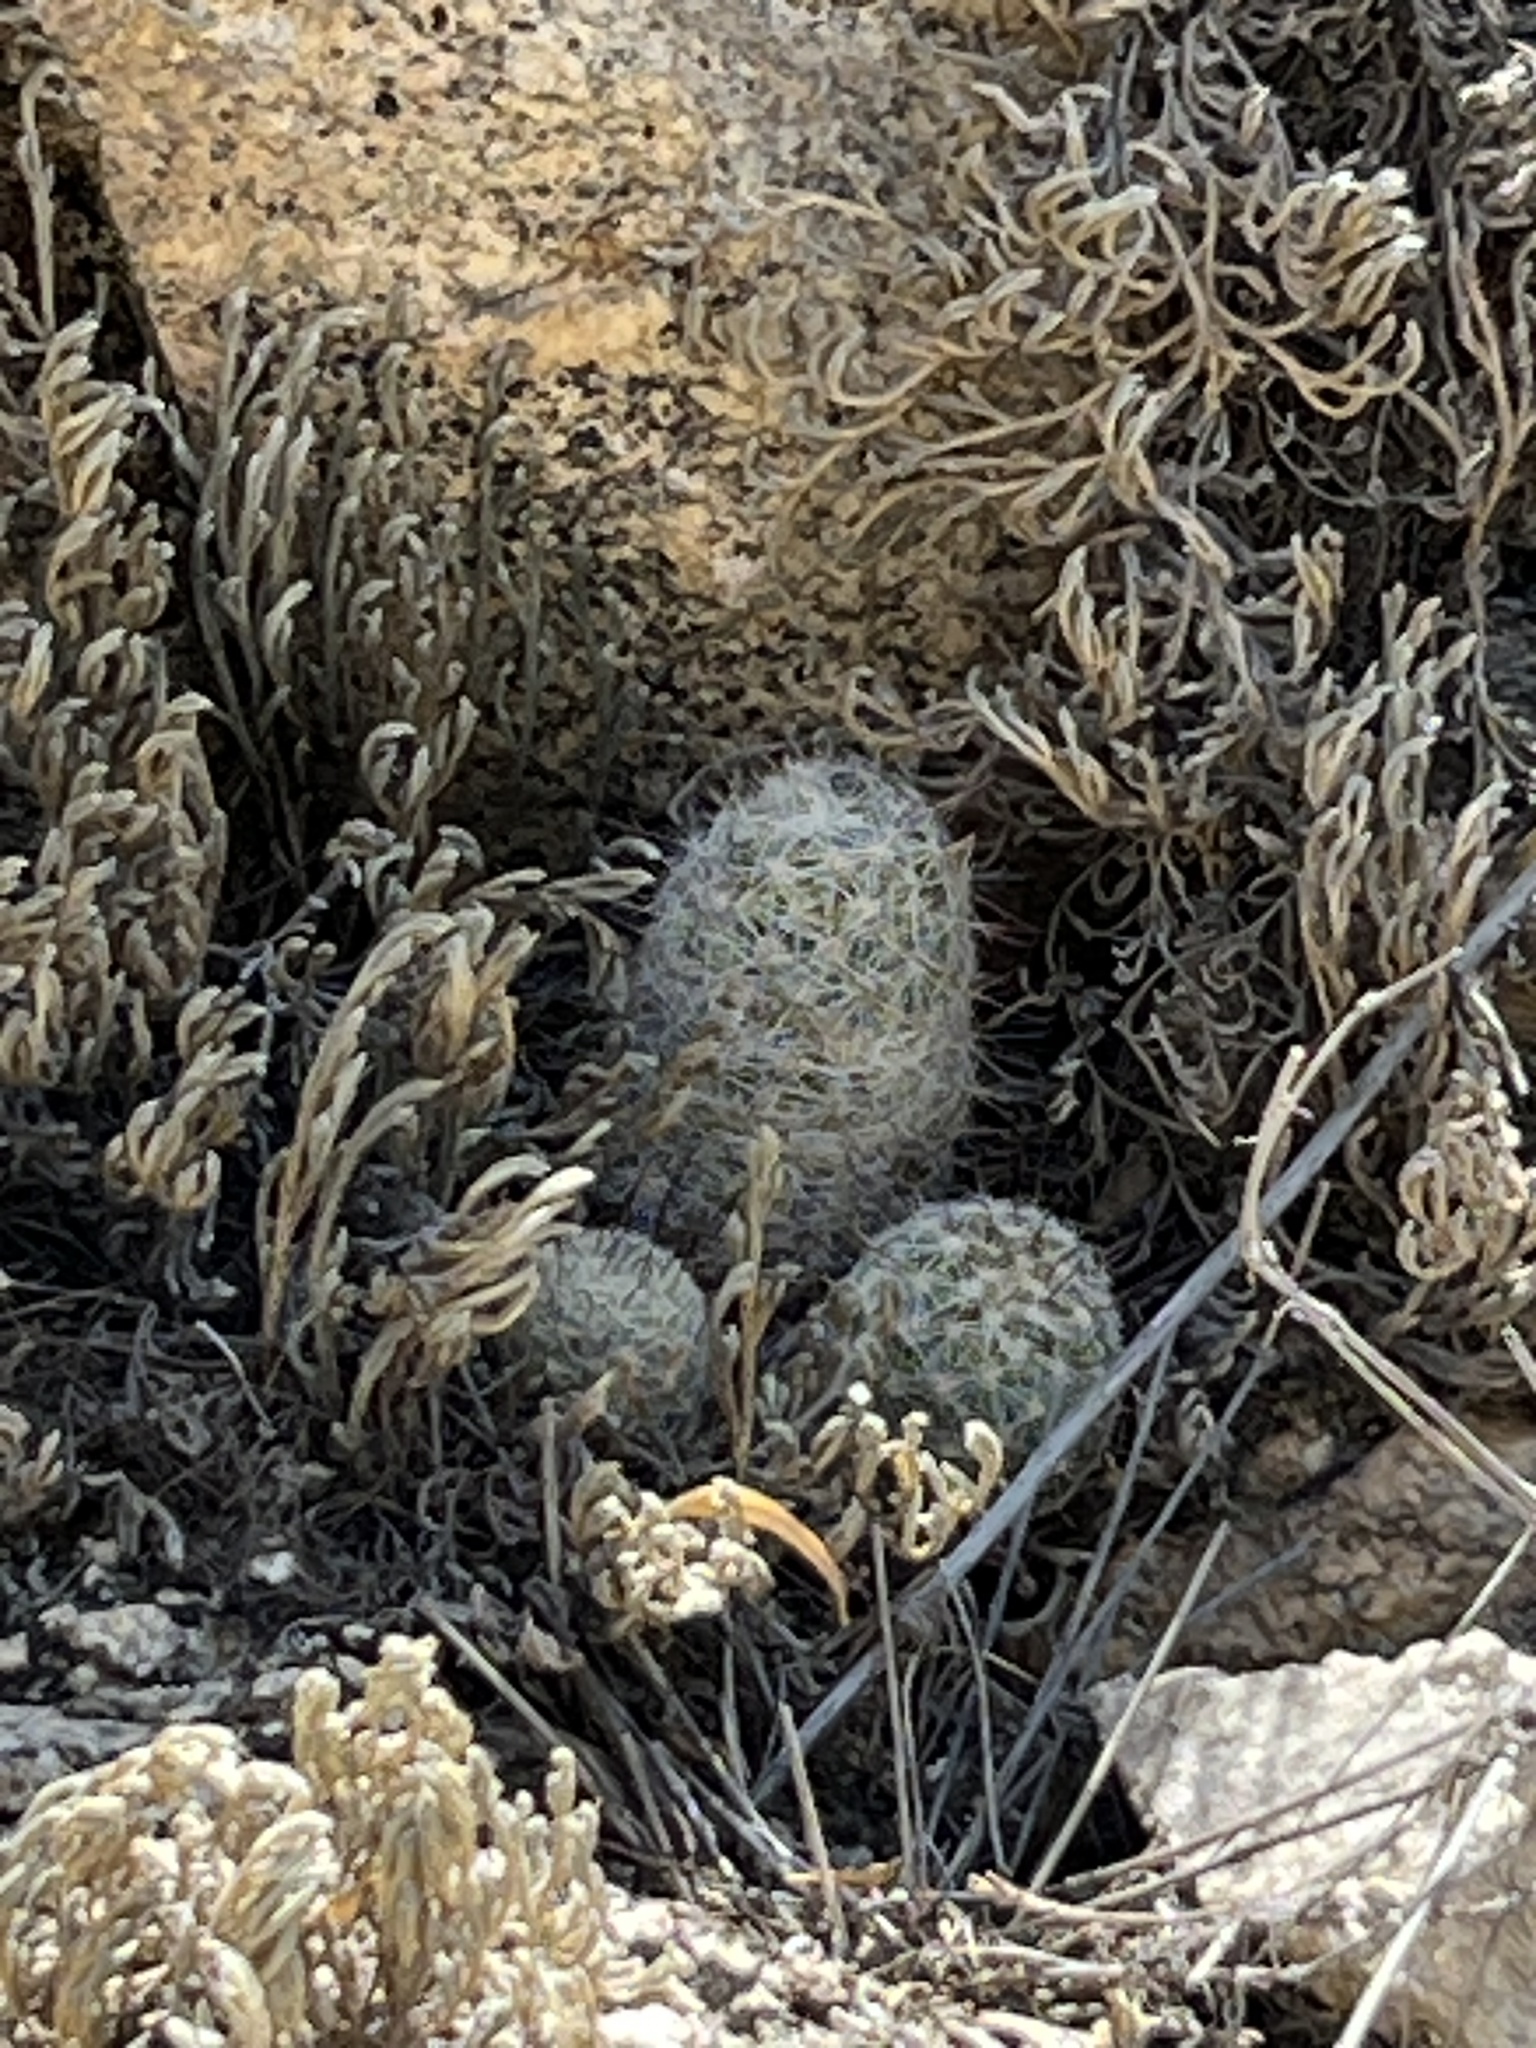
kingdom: Plantae
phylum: Tracheophyta
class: Magnoliopsida
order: Caryophyllales
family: Cactaceae
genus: Cochemiea
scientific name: Cochemiea grahamii
